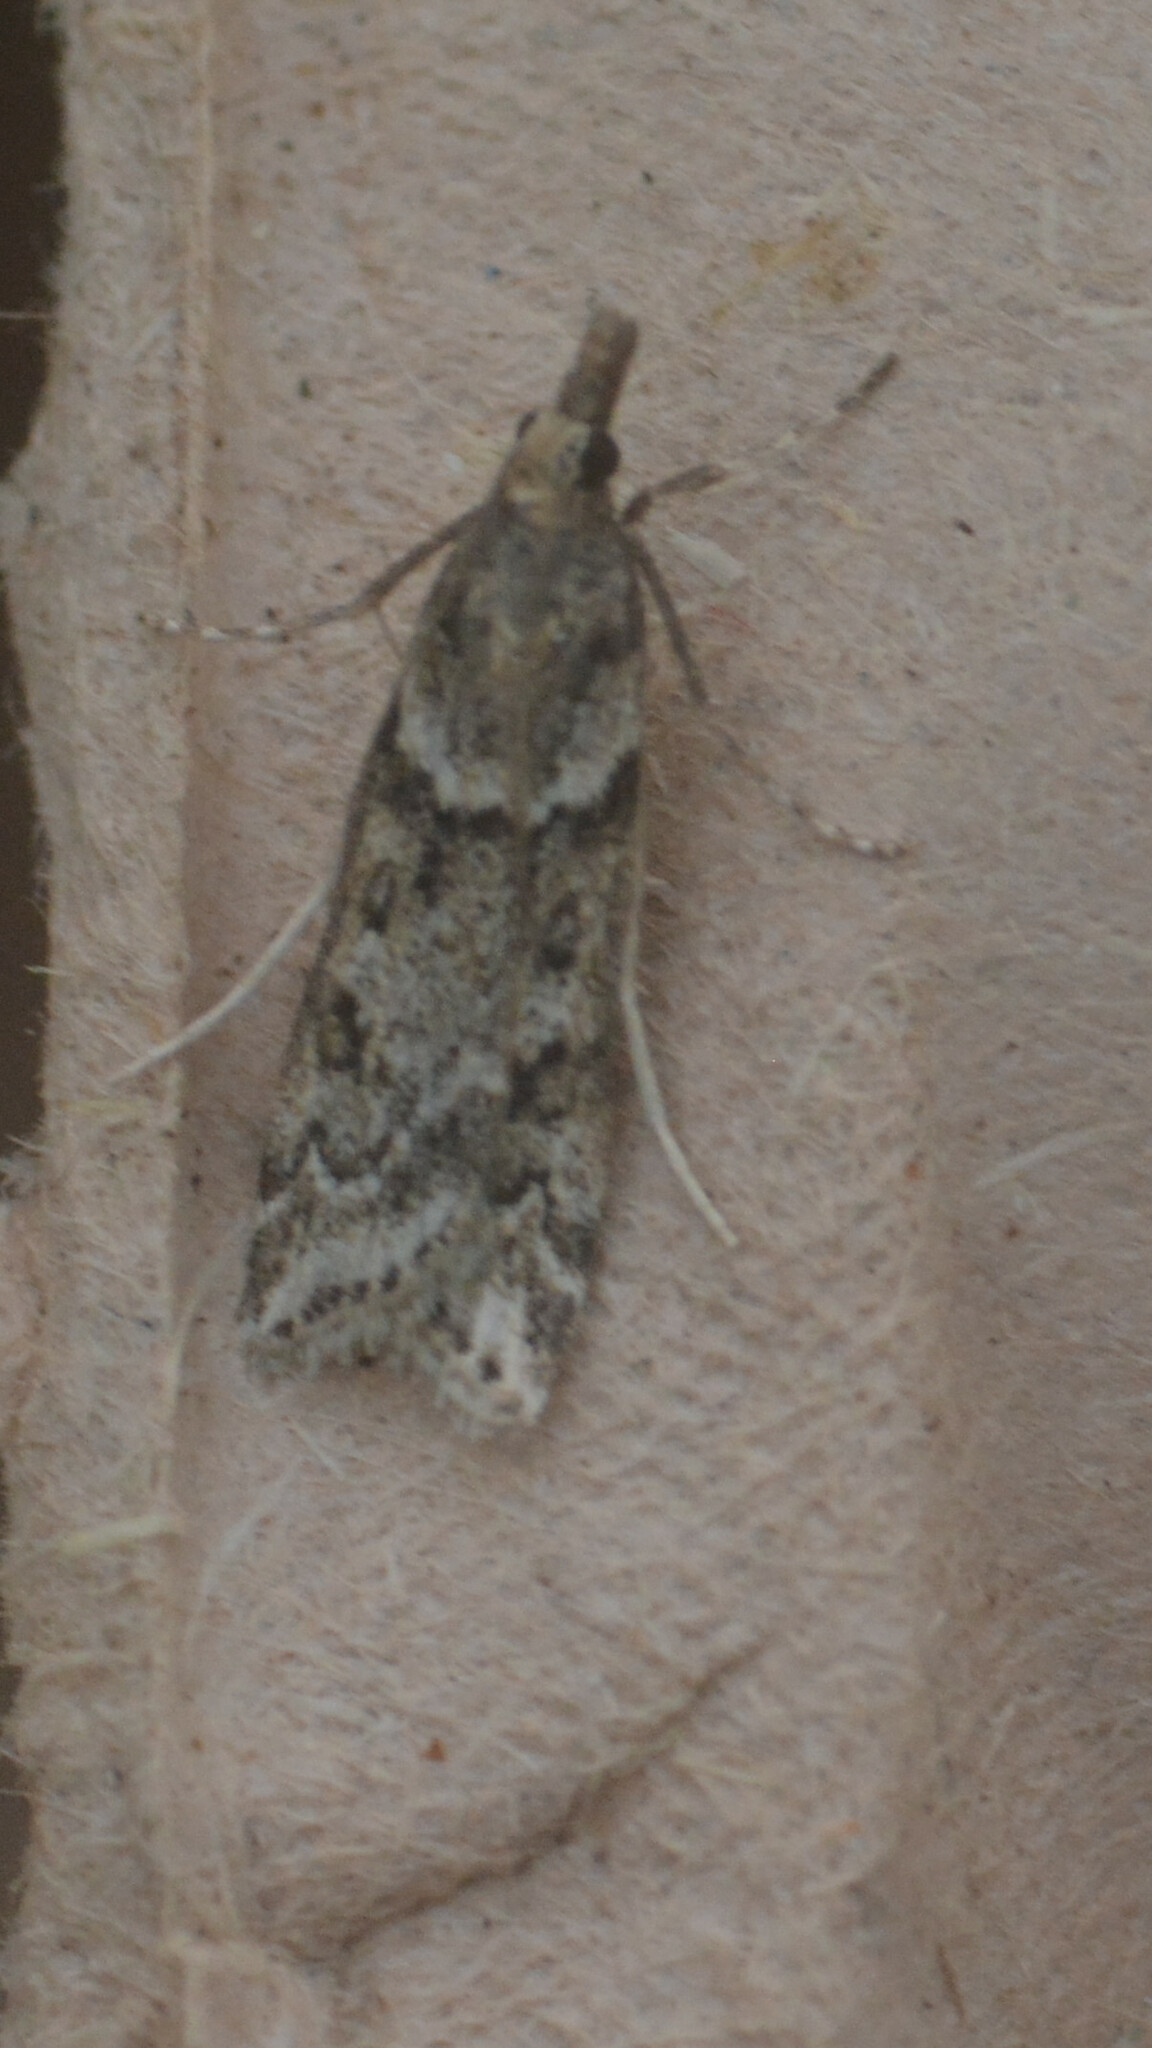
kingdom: Animalia
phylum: Arthropoda
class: Insecta
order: Lepidoptera
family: Crambidae
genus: Eudonia
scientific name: Eudonia angustea
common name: Narrow-winged grey
